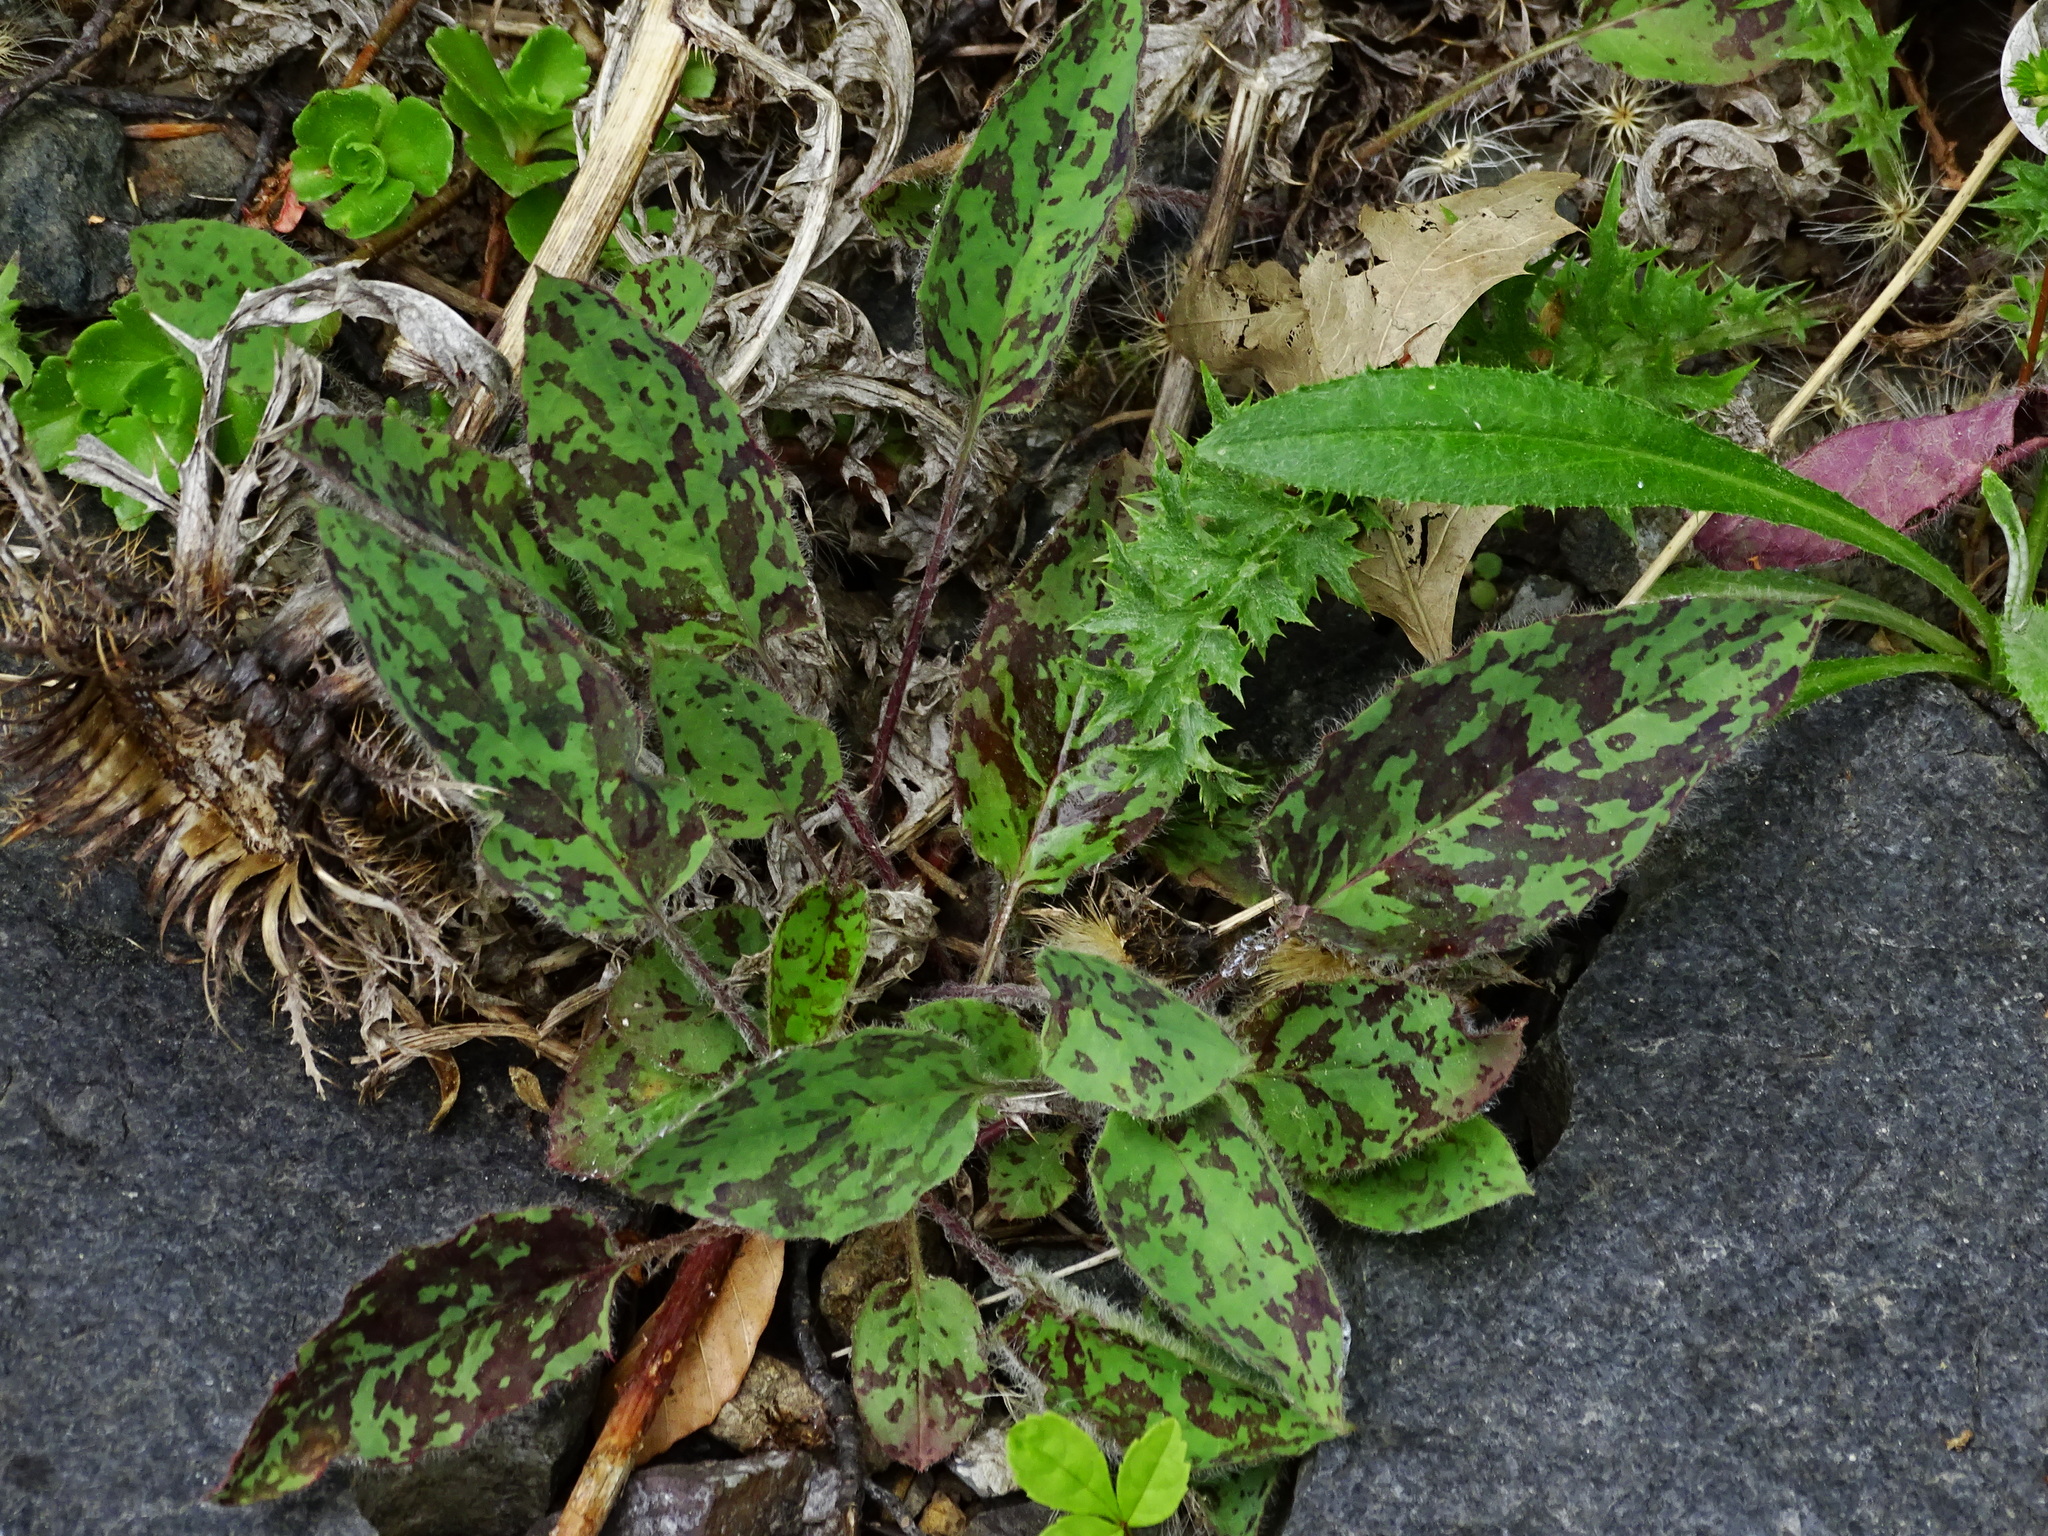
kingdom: Plantae
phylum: Tracheophyta
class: Magnoliopsida
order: Asterales
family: Asteraceae
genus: Hieracium
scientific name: Hieracium maculatum
